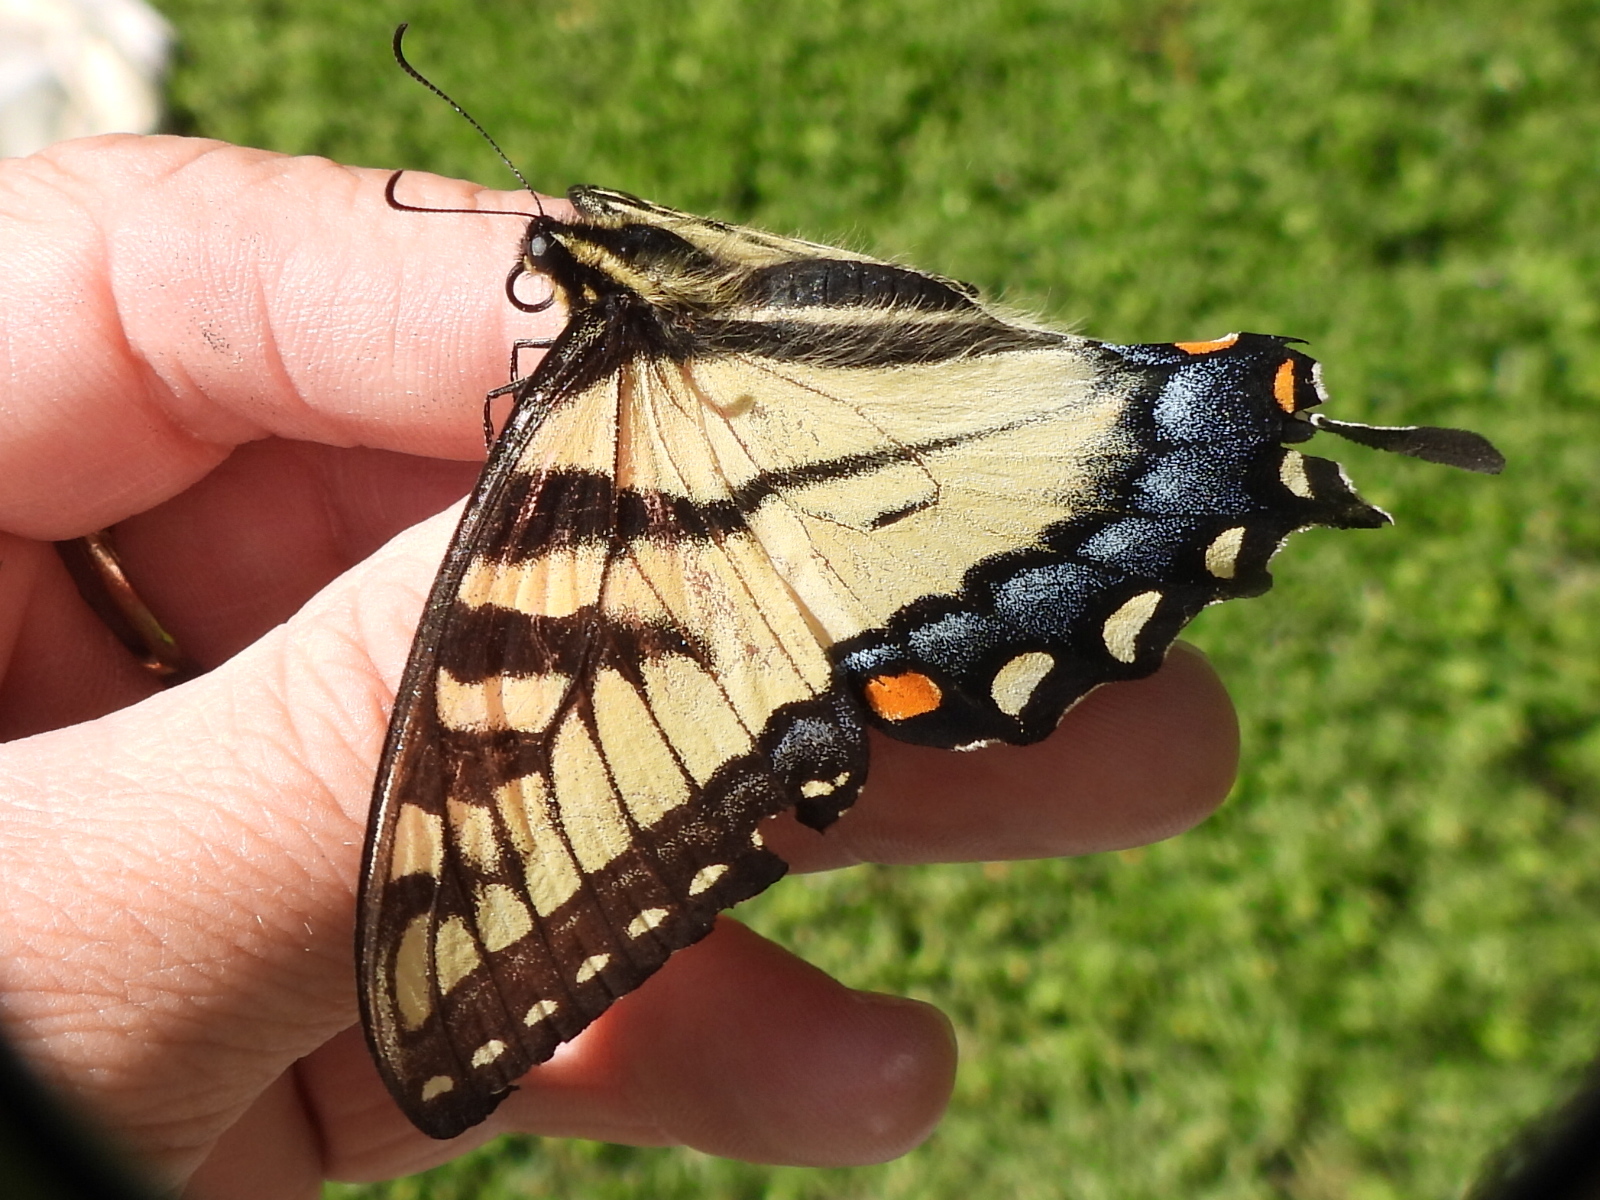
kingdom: Animalia
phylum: Arthropoda
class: Insecta
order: Lepidoptera
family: Papilionidae
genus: Papilio
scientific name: Papilio glaucus
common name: Tiger swallowtail
